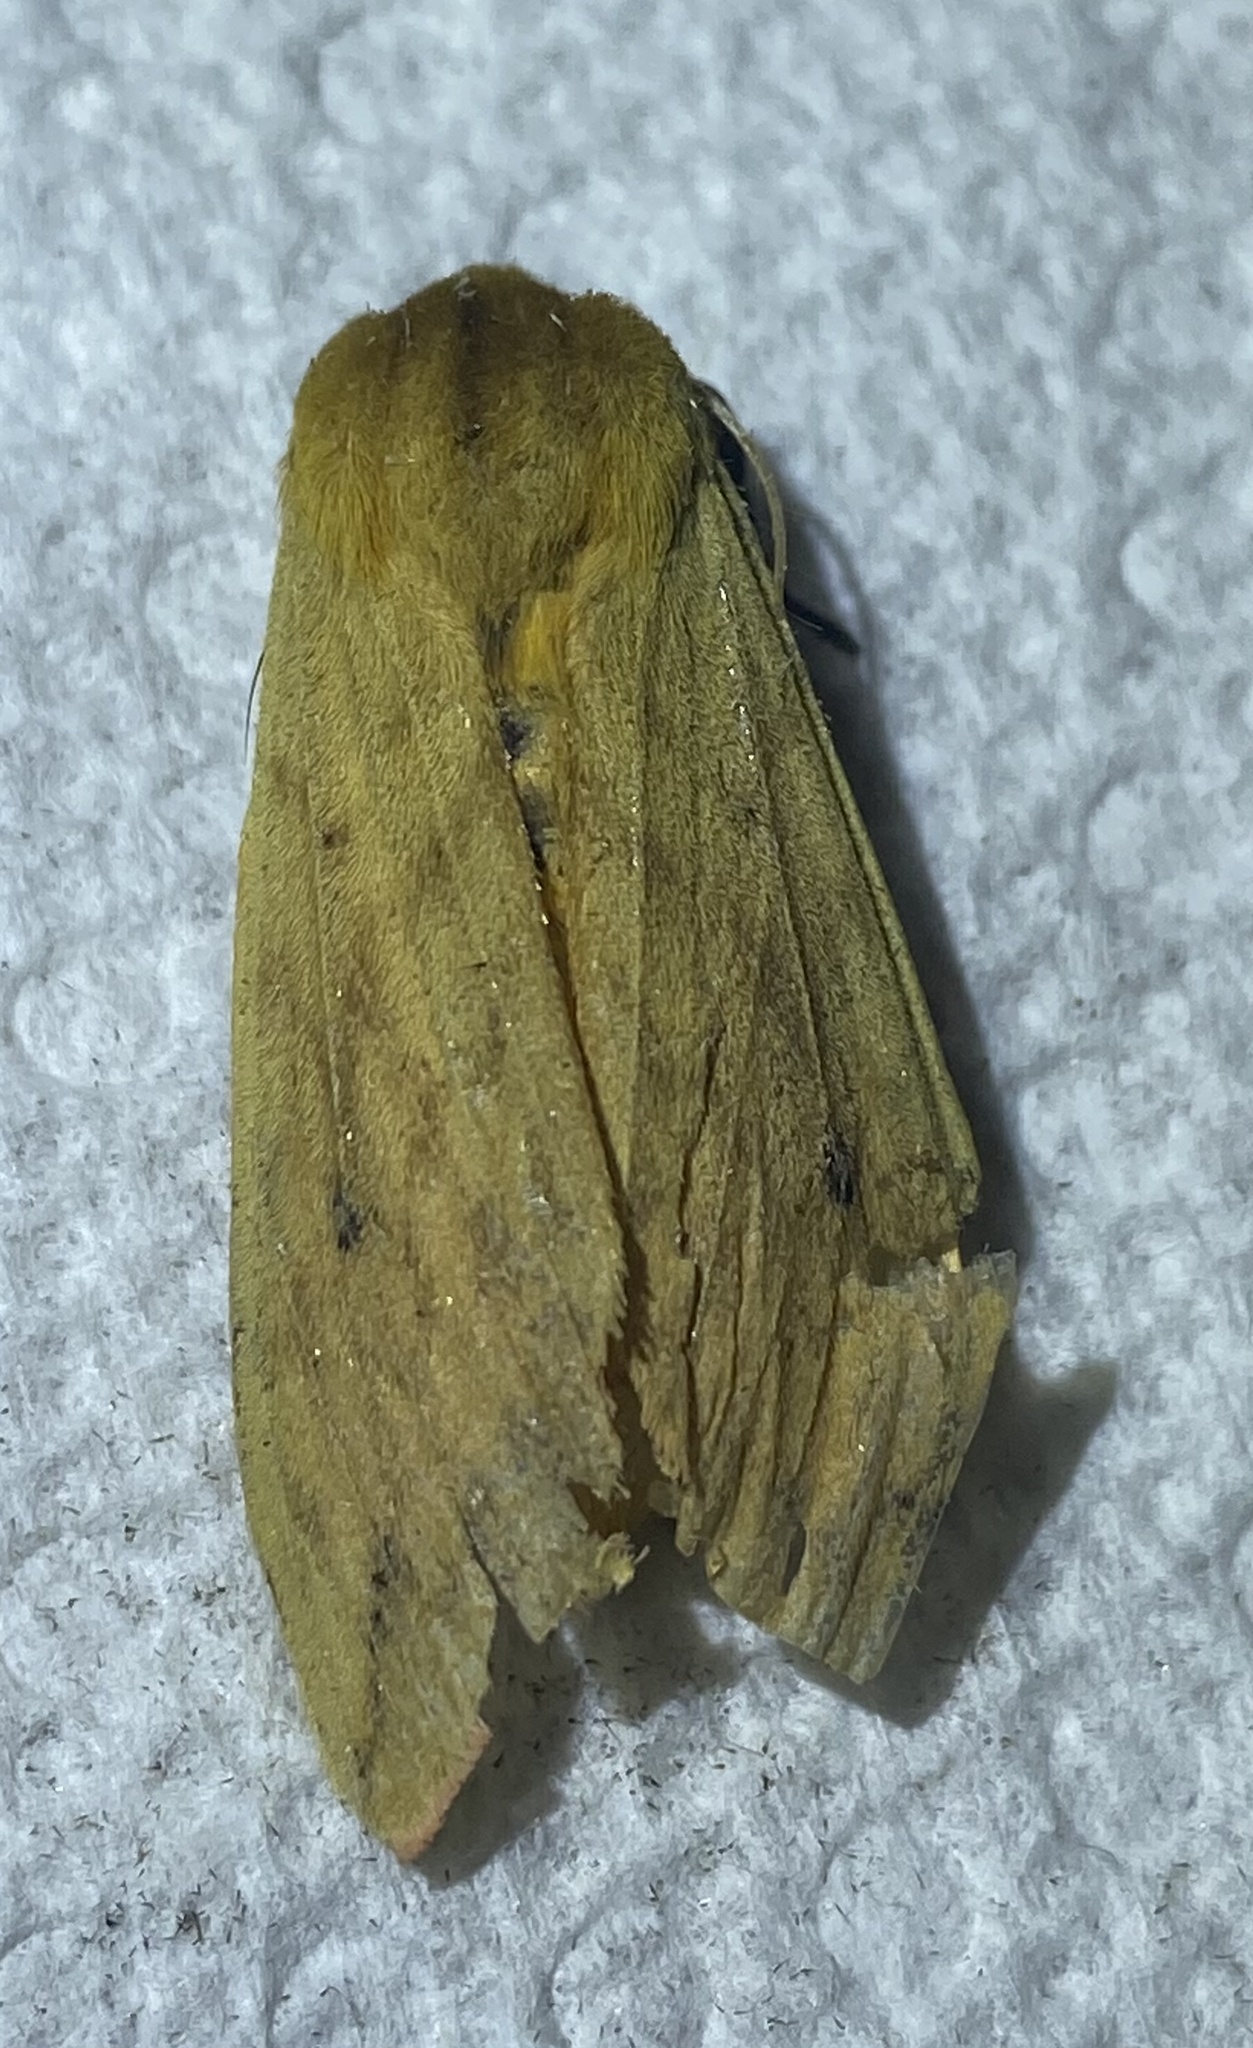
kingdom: Animalia
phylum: Arthropoda
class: Insecta
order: Lepidoptera
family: Erebidae
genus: Pyrrharctia
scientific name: Pyrrharctia isabella
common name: Isabella tiger moth
